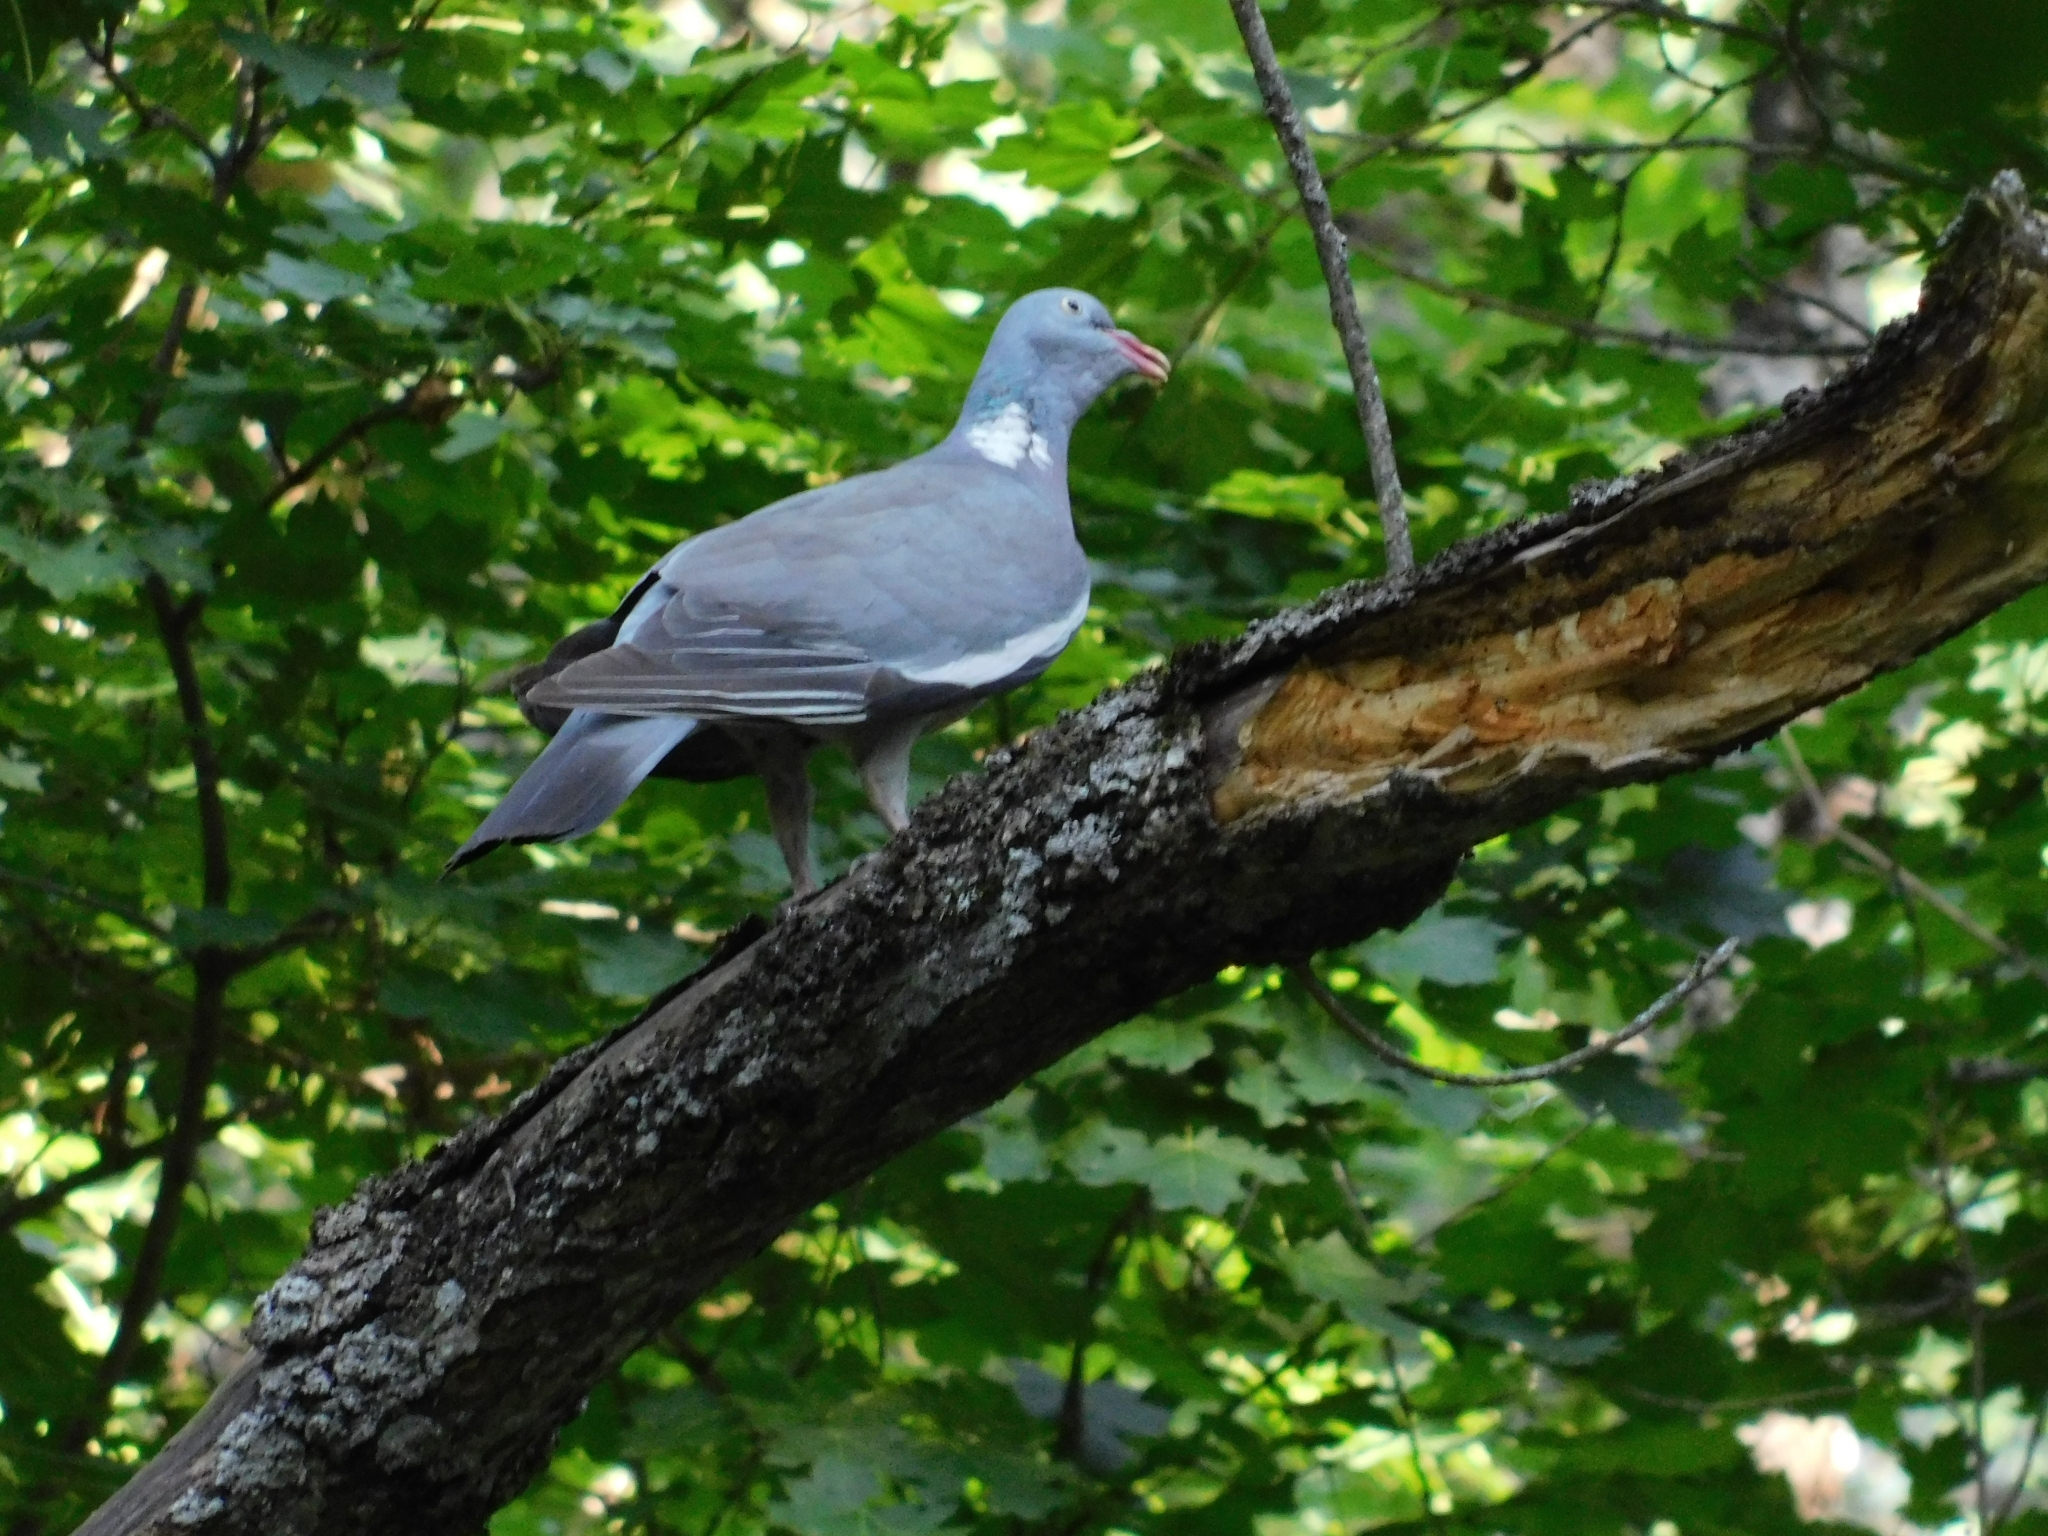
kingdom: Animalia
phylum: Chordata
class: Aves
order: Columbiformes
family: Columbidae
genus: Columba
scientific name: Columba palumbus
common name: Common wood pigeon
